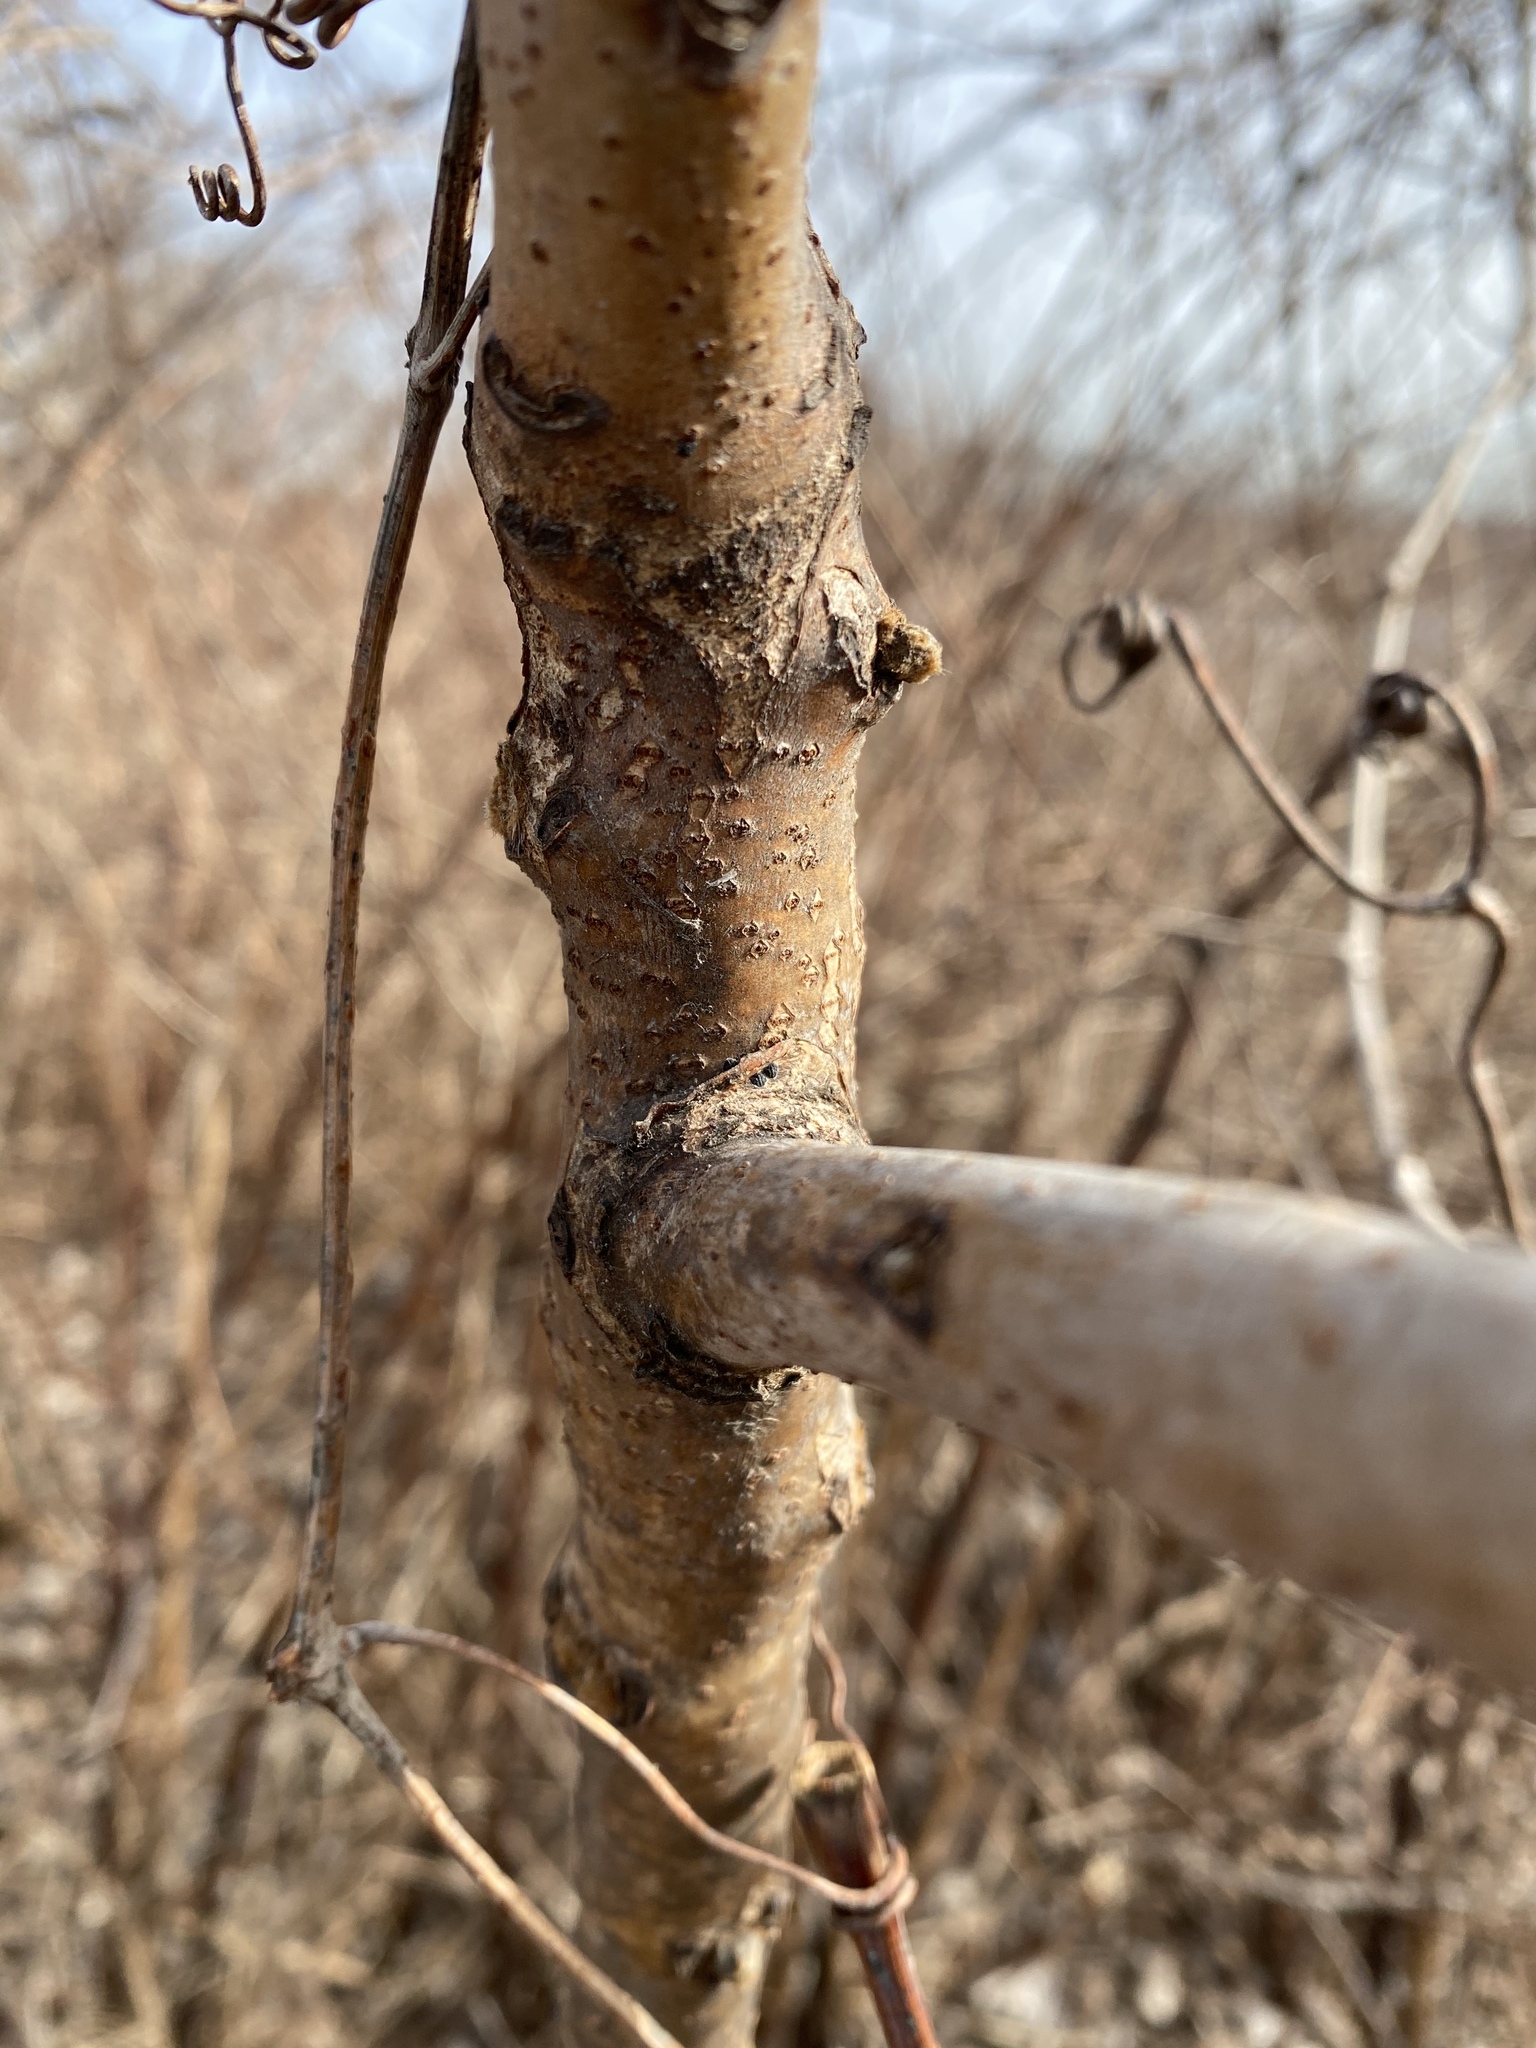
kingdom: Plantae
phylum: Tracheophyta
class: Magnoliopsida
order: Sapindales
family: Anacardiaceae
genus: Rhus
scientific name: Rhus glabra
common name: Scarlet sumac
